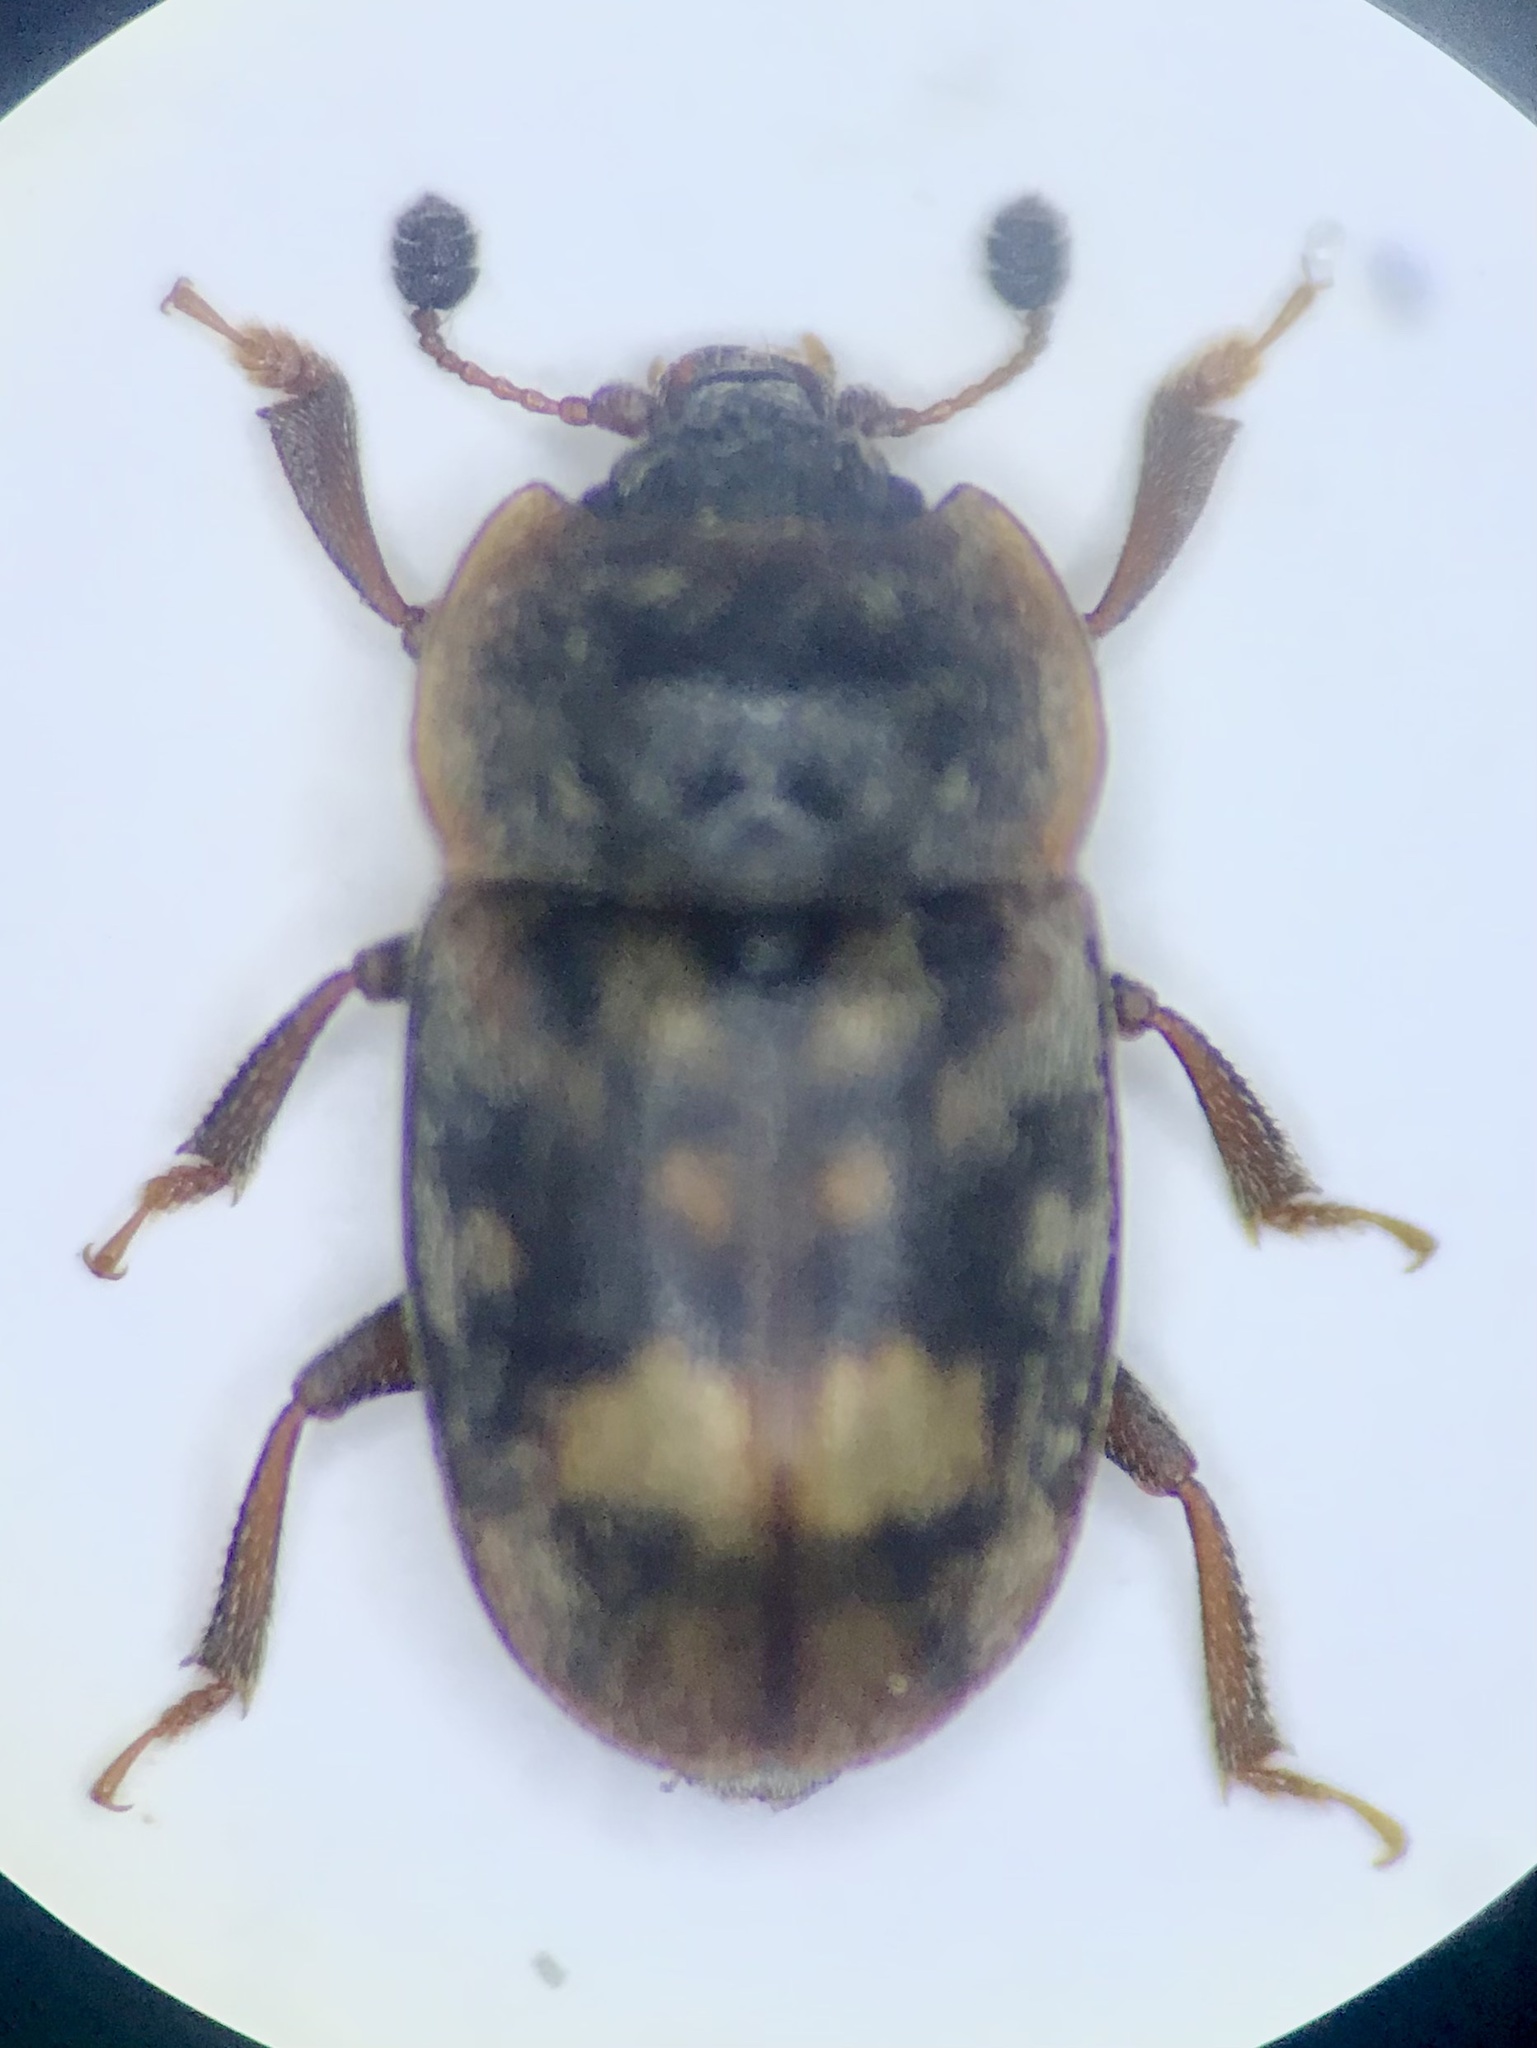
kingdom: Animalia
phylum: Arthropoda
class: Insecta
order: Coleoptera
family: Nitidulidae
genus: Omosita
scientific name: Omosita colon
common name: Sap-feeding beetle
